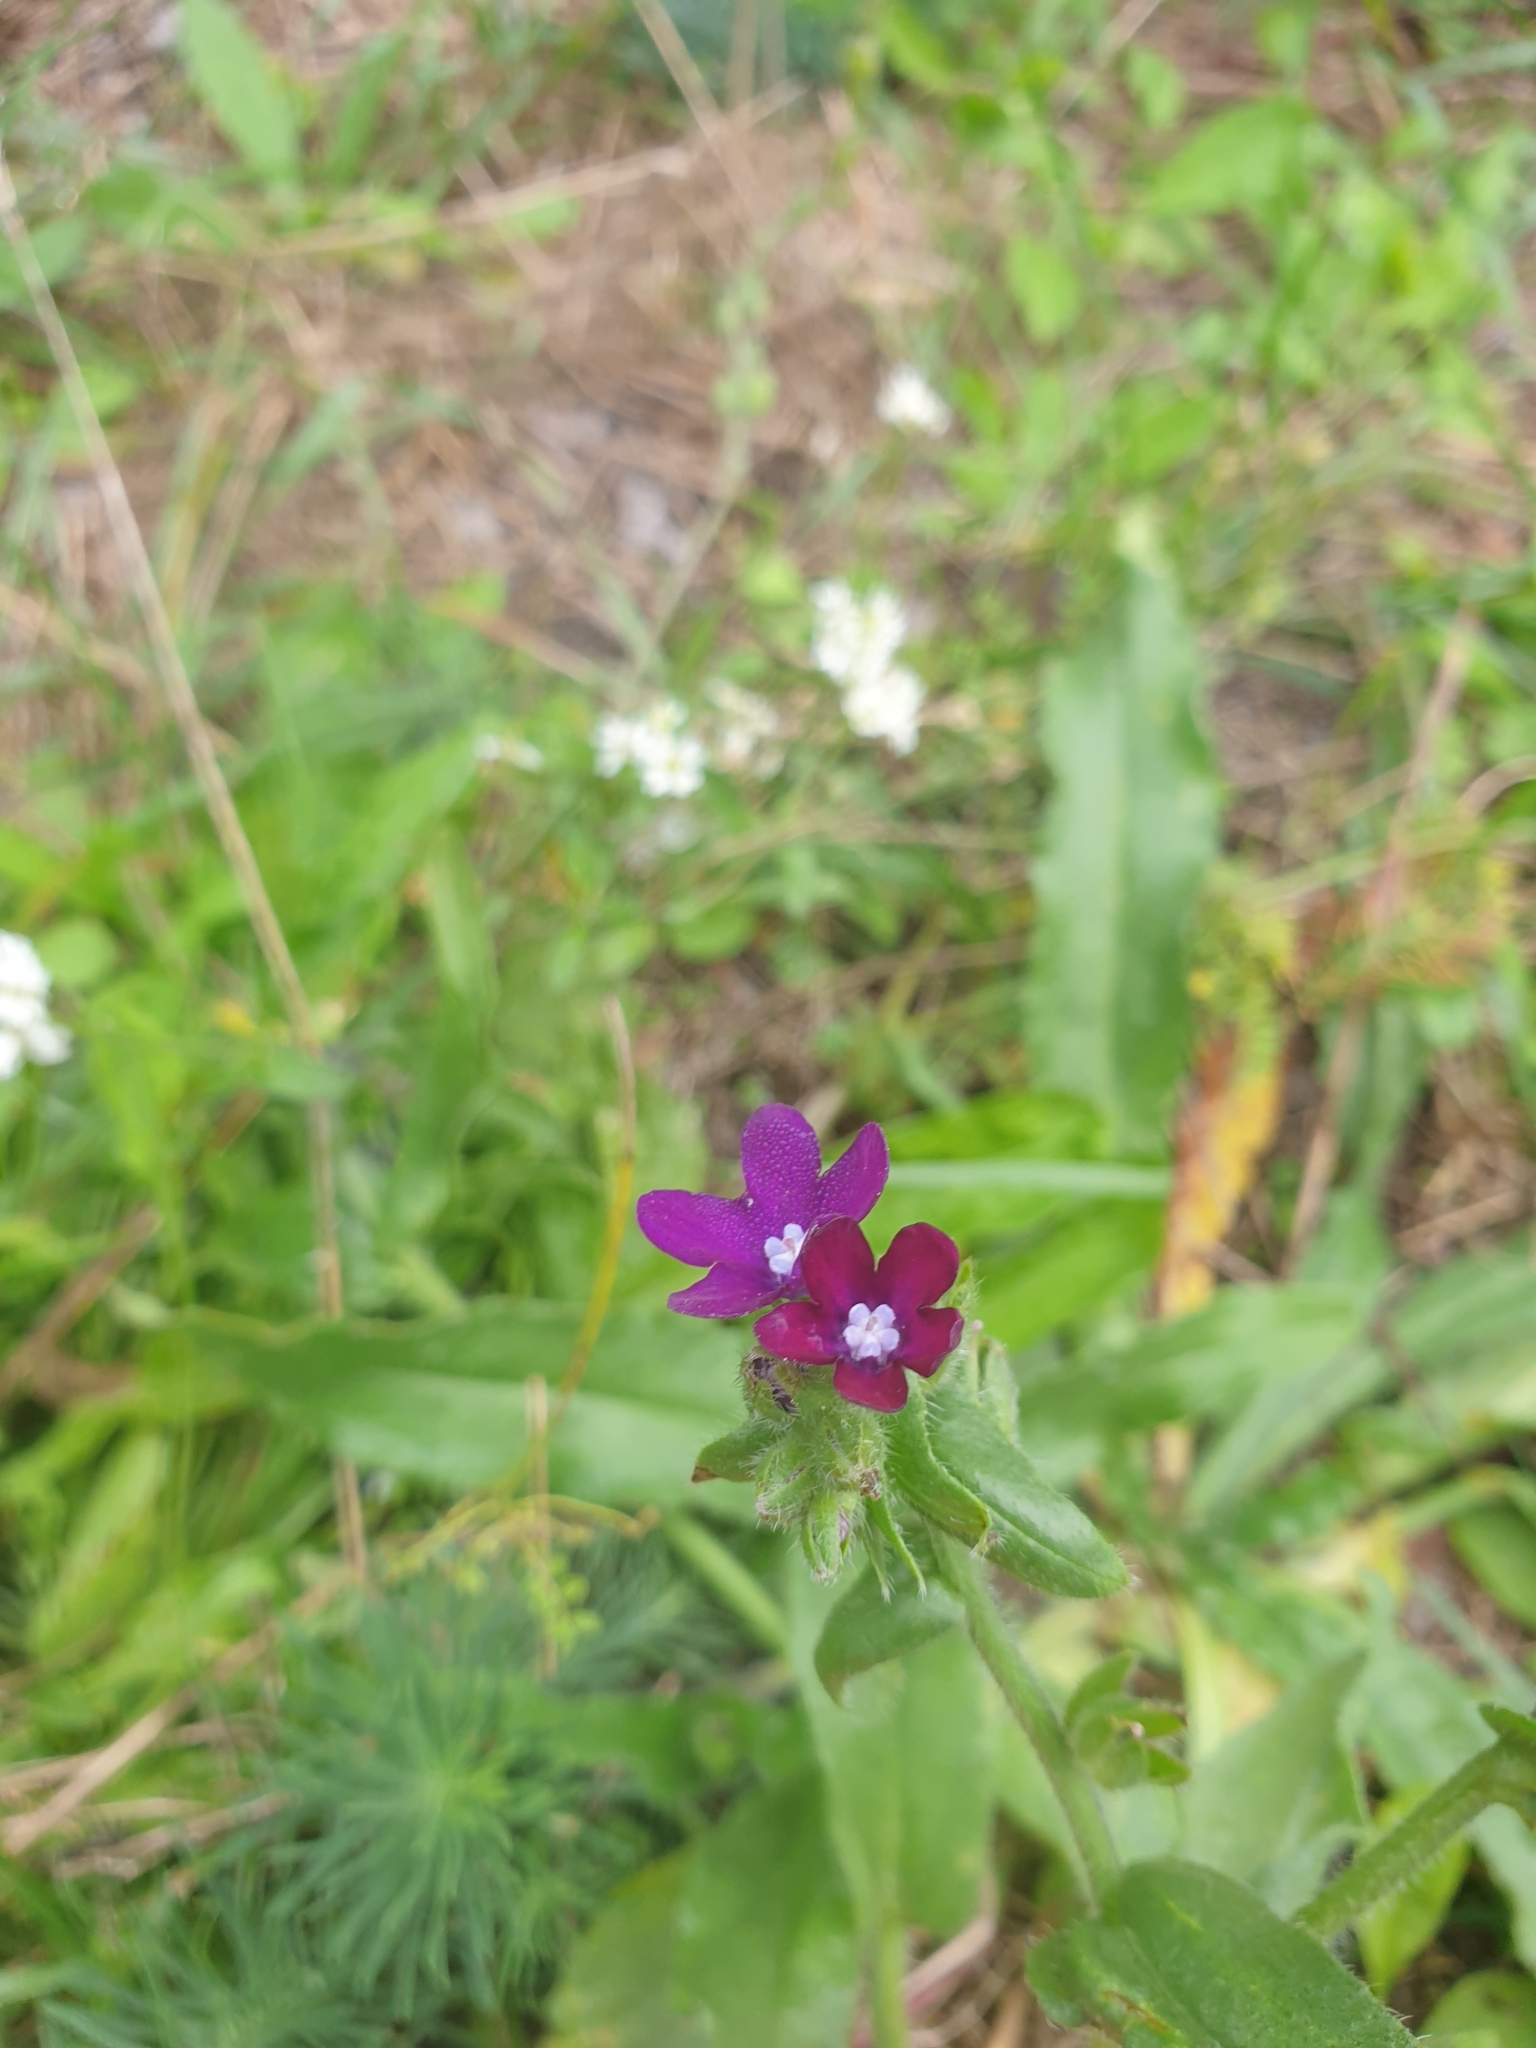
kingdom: Plantae
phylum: Tracheophyta
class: Magnoliopsida
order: Boraginales
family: Boraginaceae
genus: Anchusa
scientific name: Anchusa officinalis
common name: Alkanet
